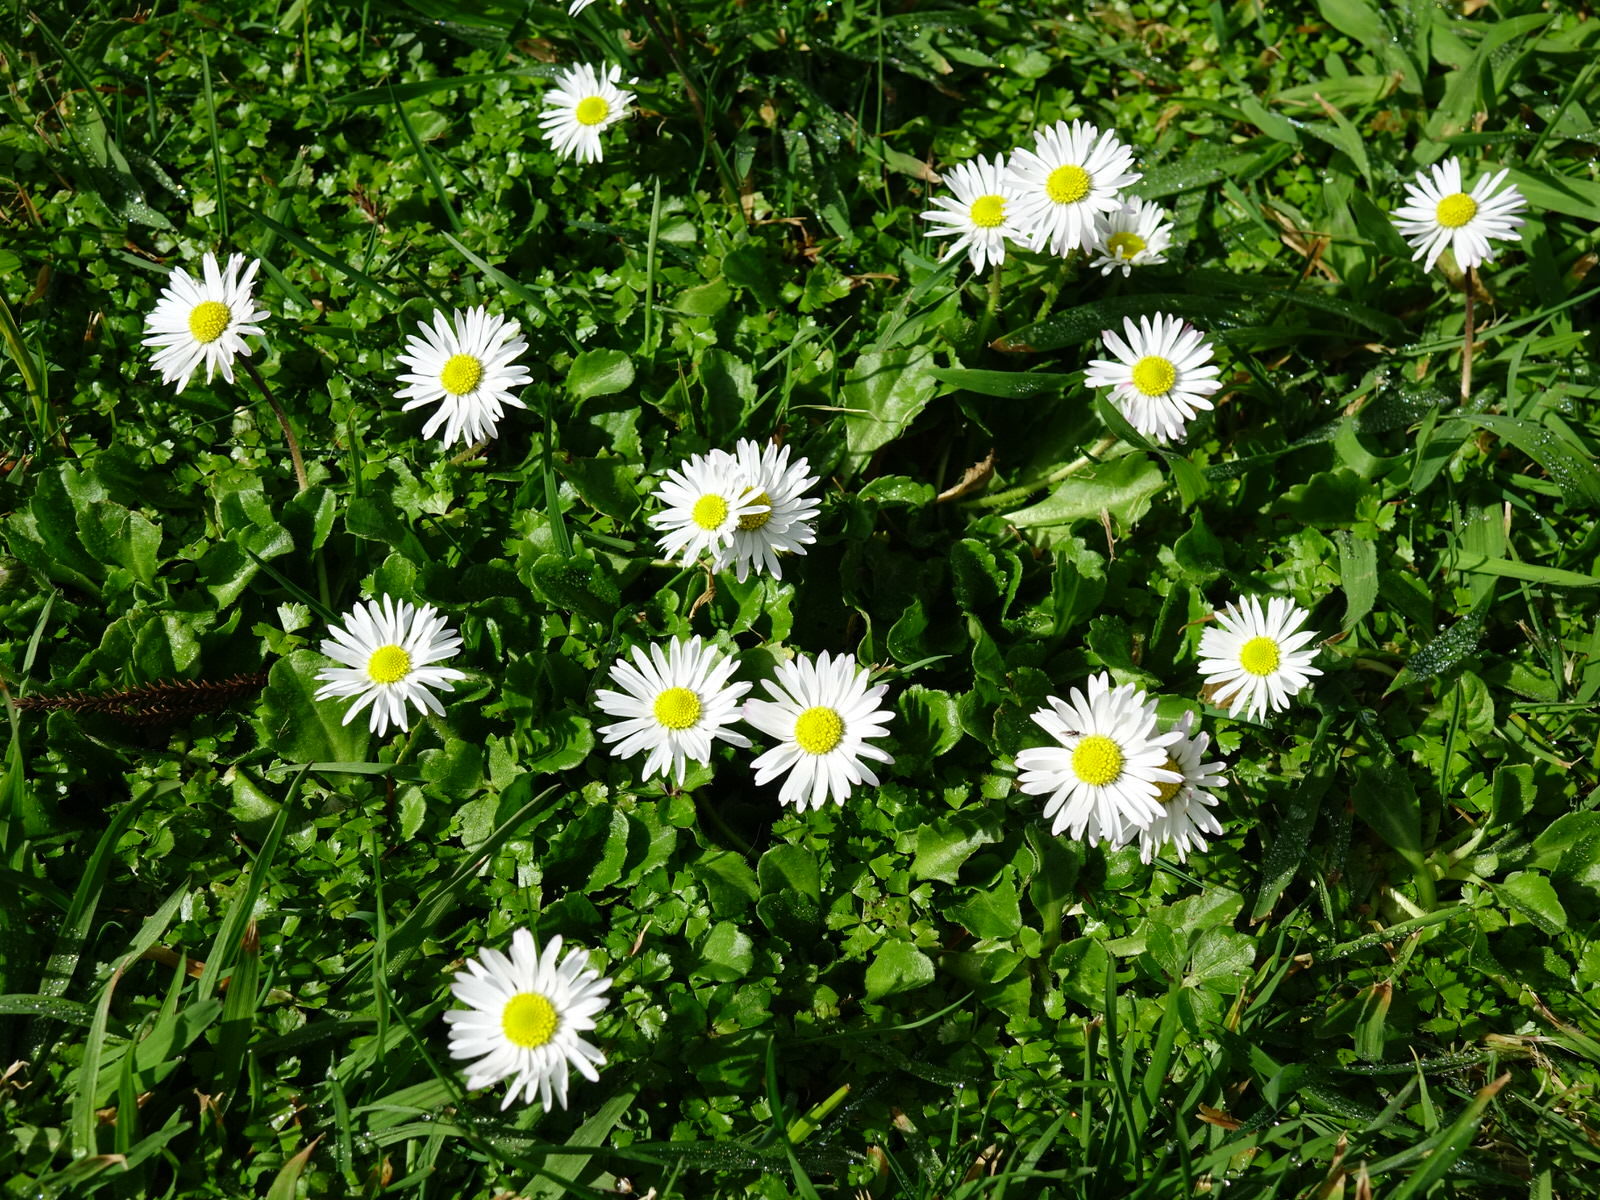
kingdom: Plantae
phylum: Tracheophyta
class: Magnoliopsida
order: Asterales
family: Asteraceae
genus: Bellis
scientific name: Bellis perennis
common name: Lawndaisy
